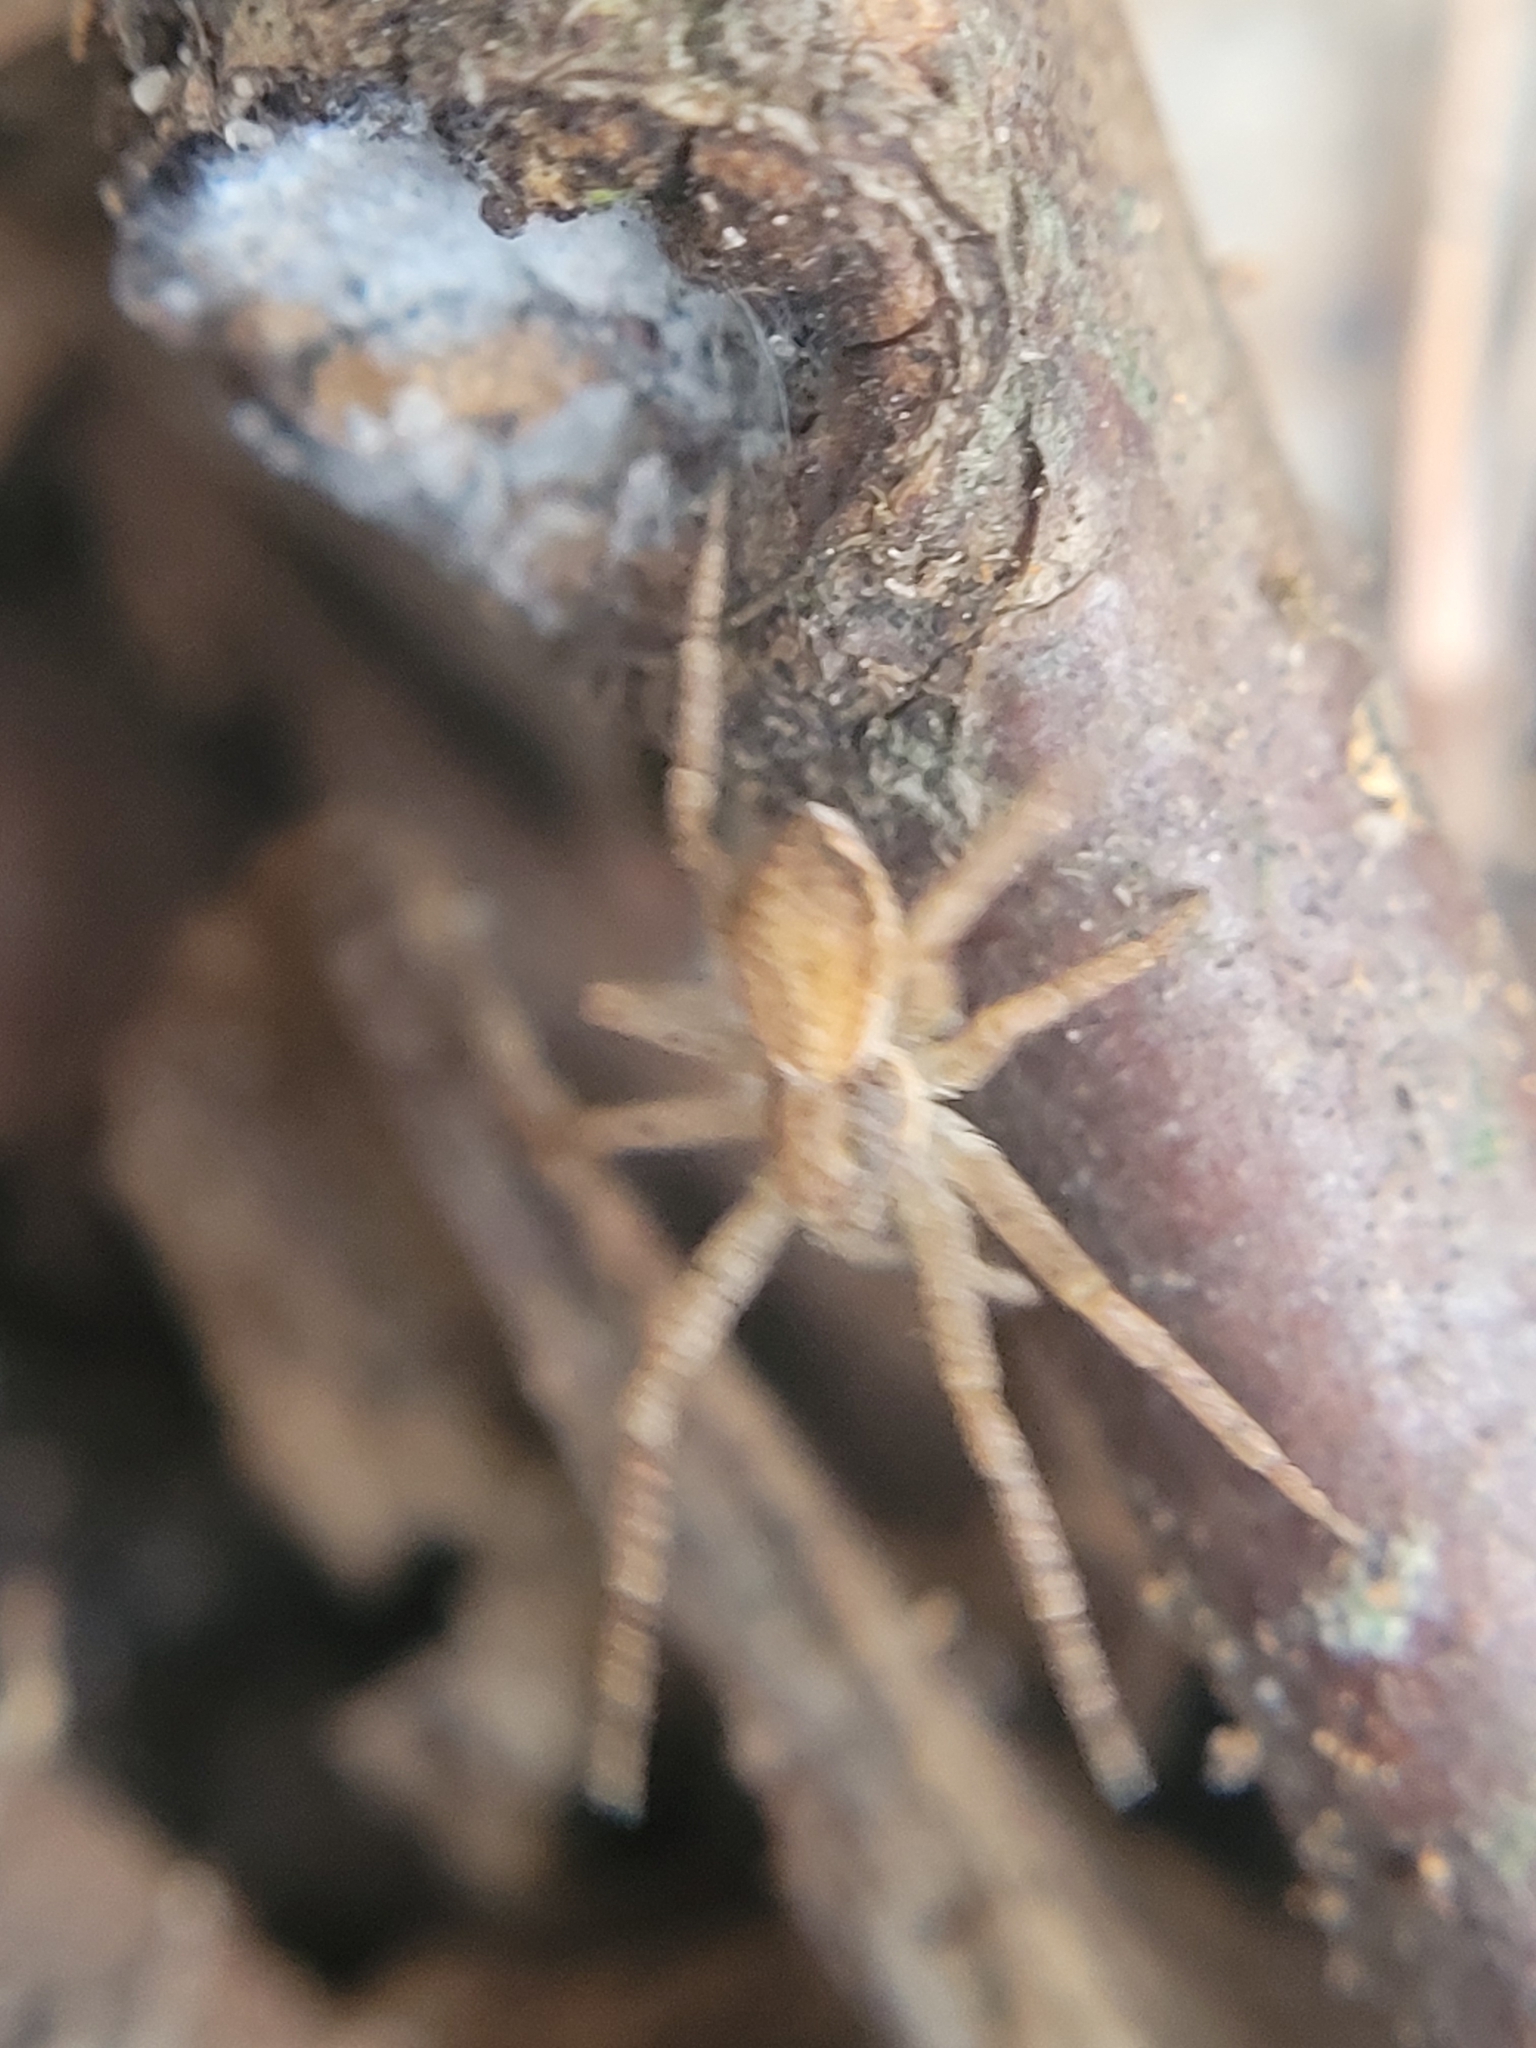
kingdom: Animalia
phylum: Arthropoda
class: Arachnida
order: Araneae
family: Philodromidae
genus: Philodromus
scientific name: Philodromus dispar
